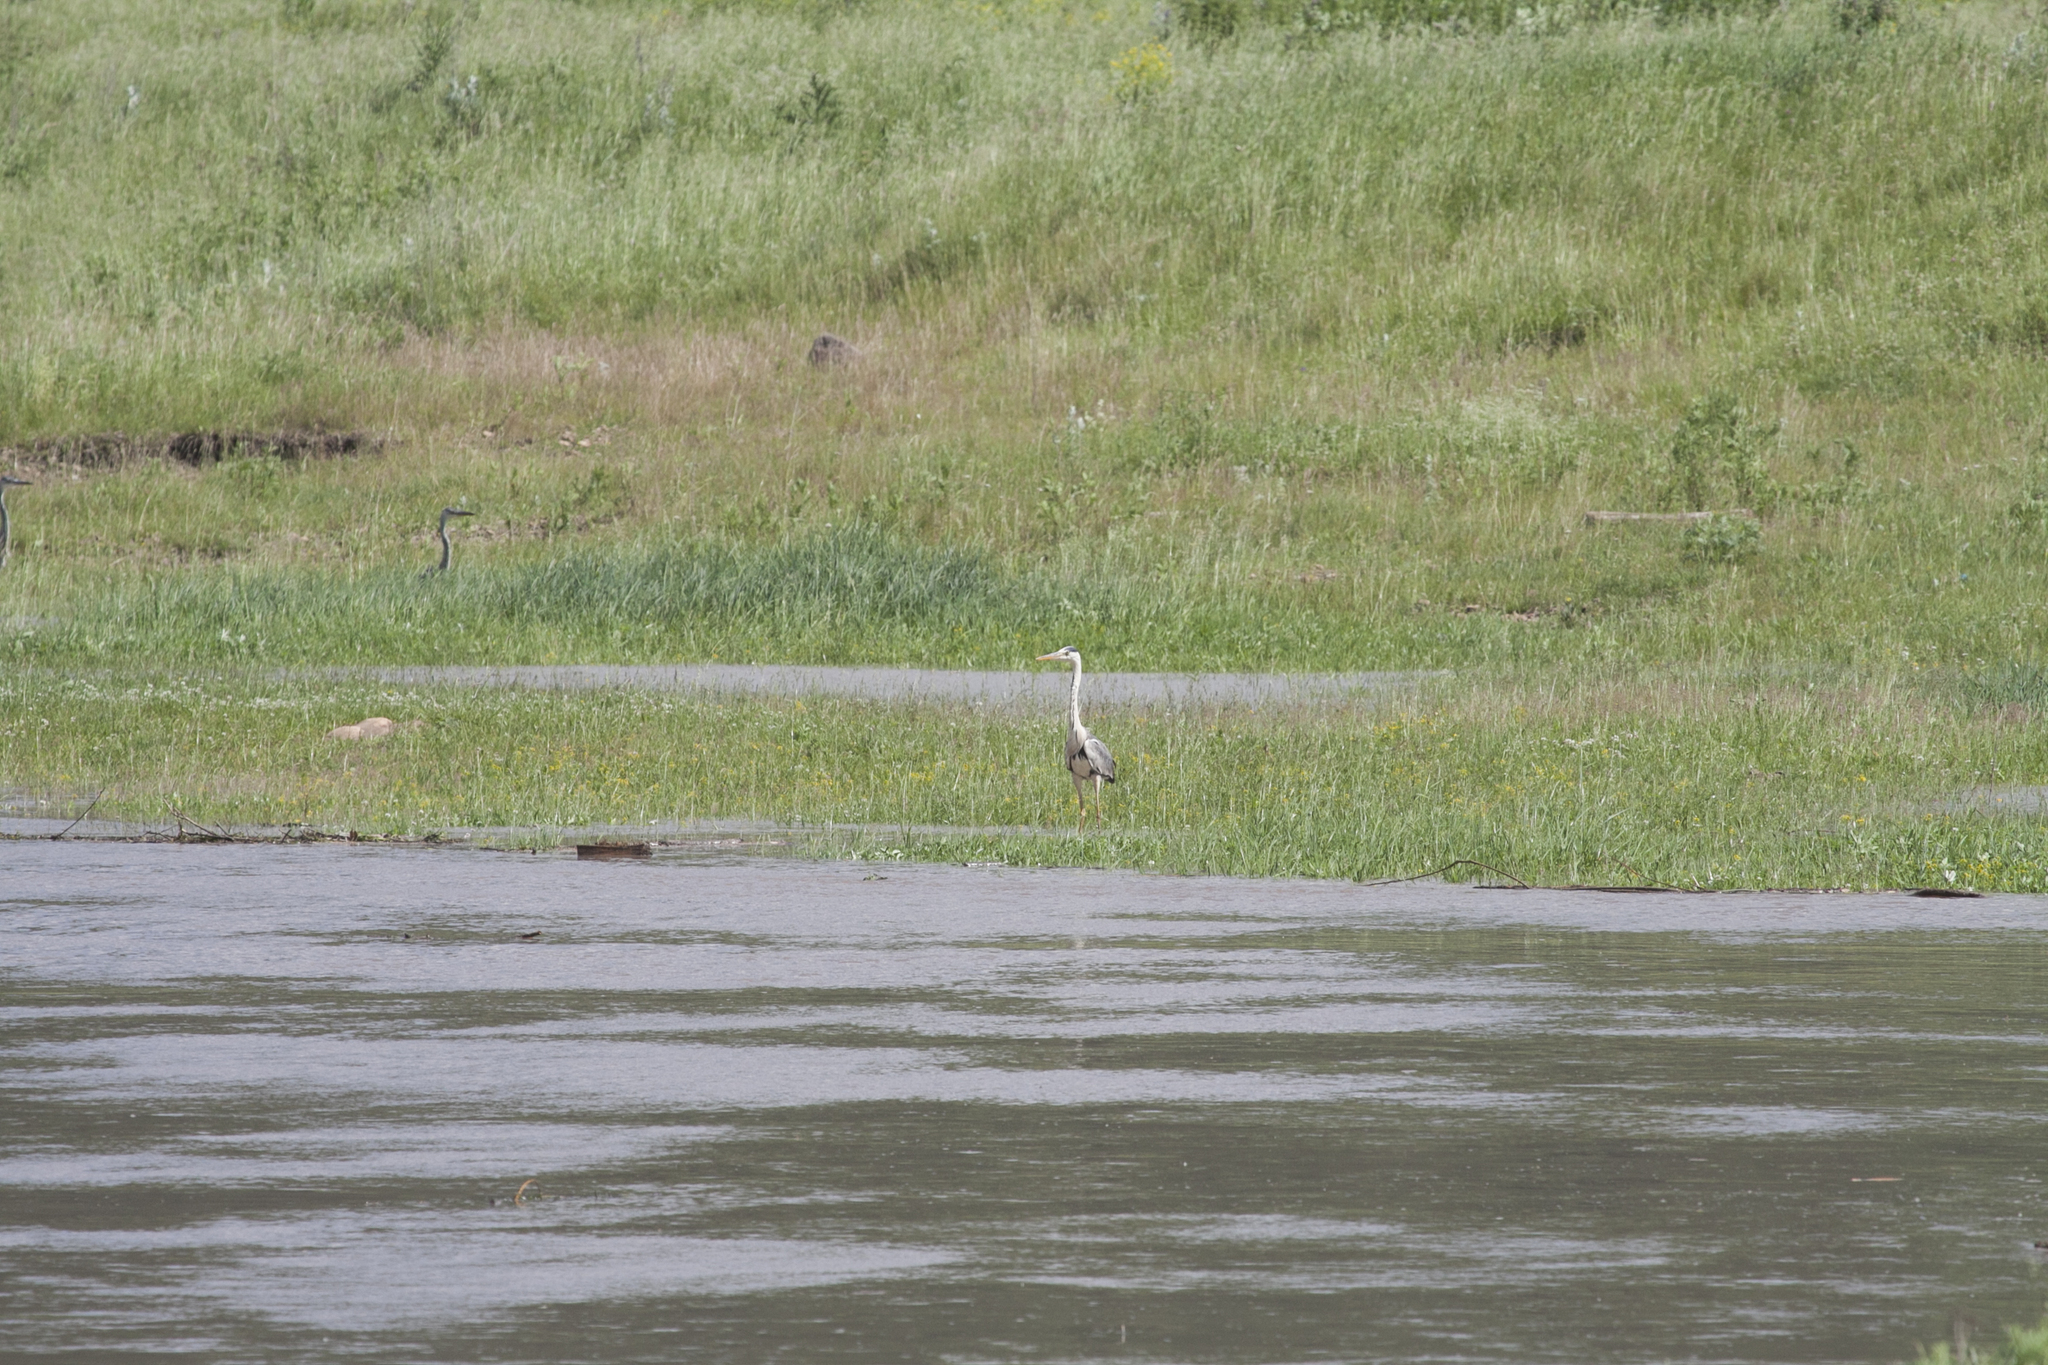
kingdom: Animalia
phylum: Chordata
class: Aves
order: Pelecaniformes
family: Ardeidae
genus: Ardea
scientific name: Ardea cinerea
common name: Grey heron
